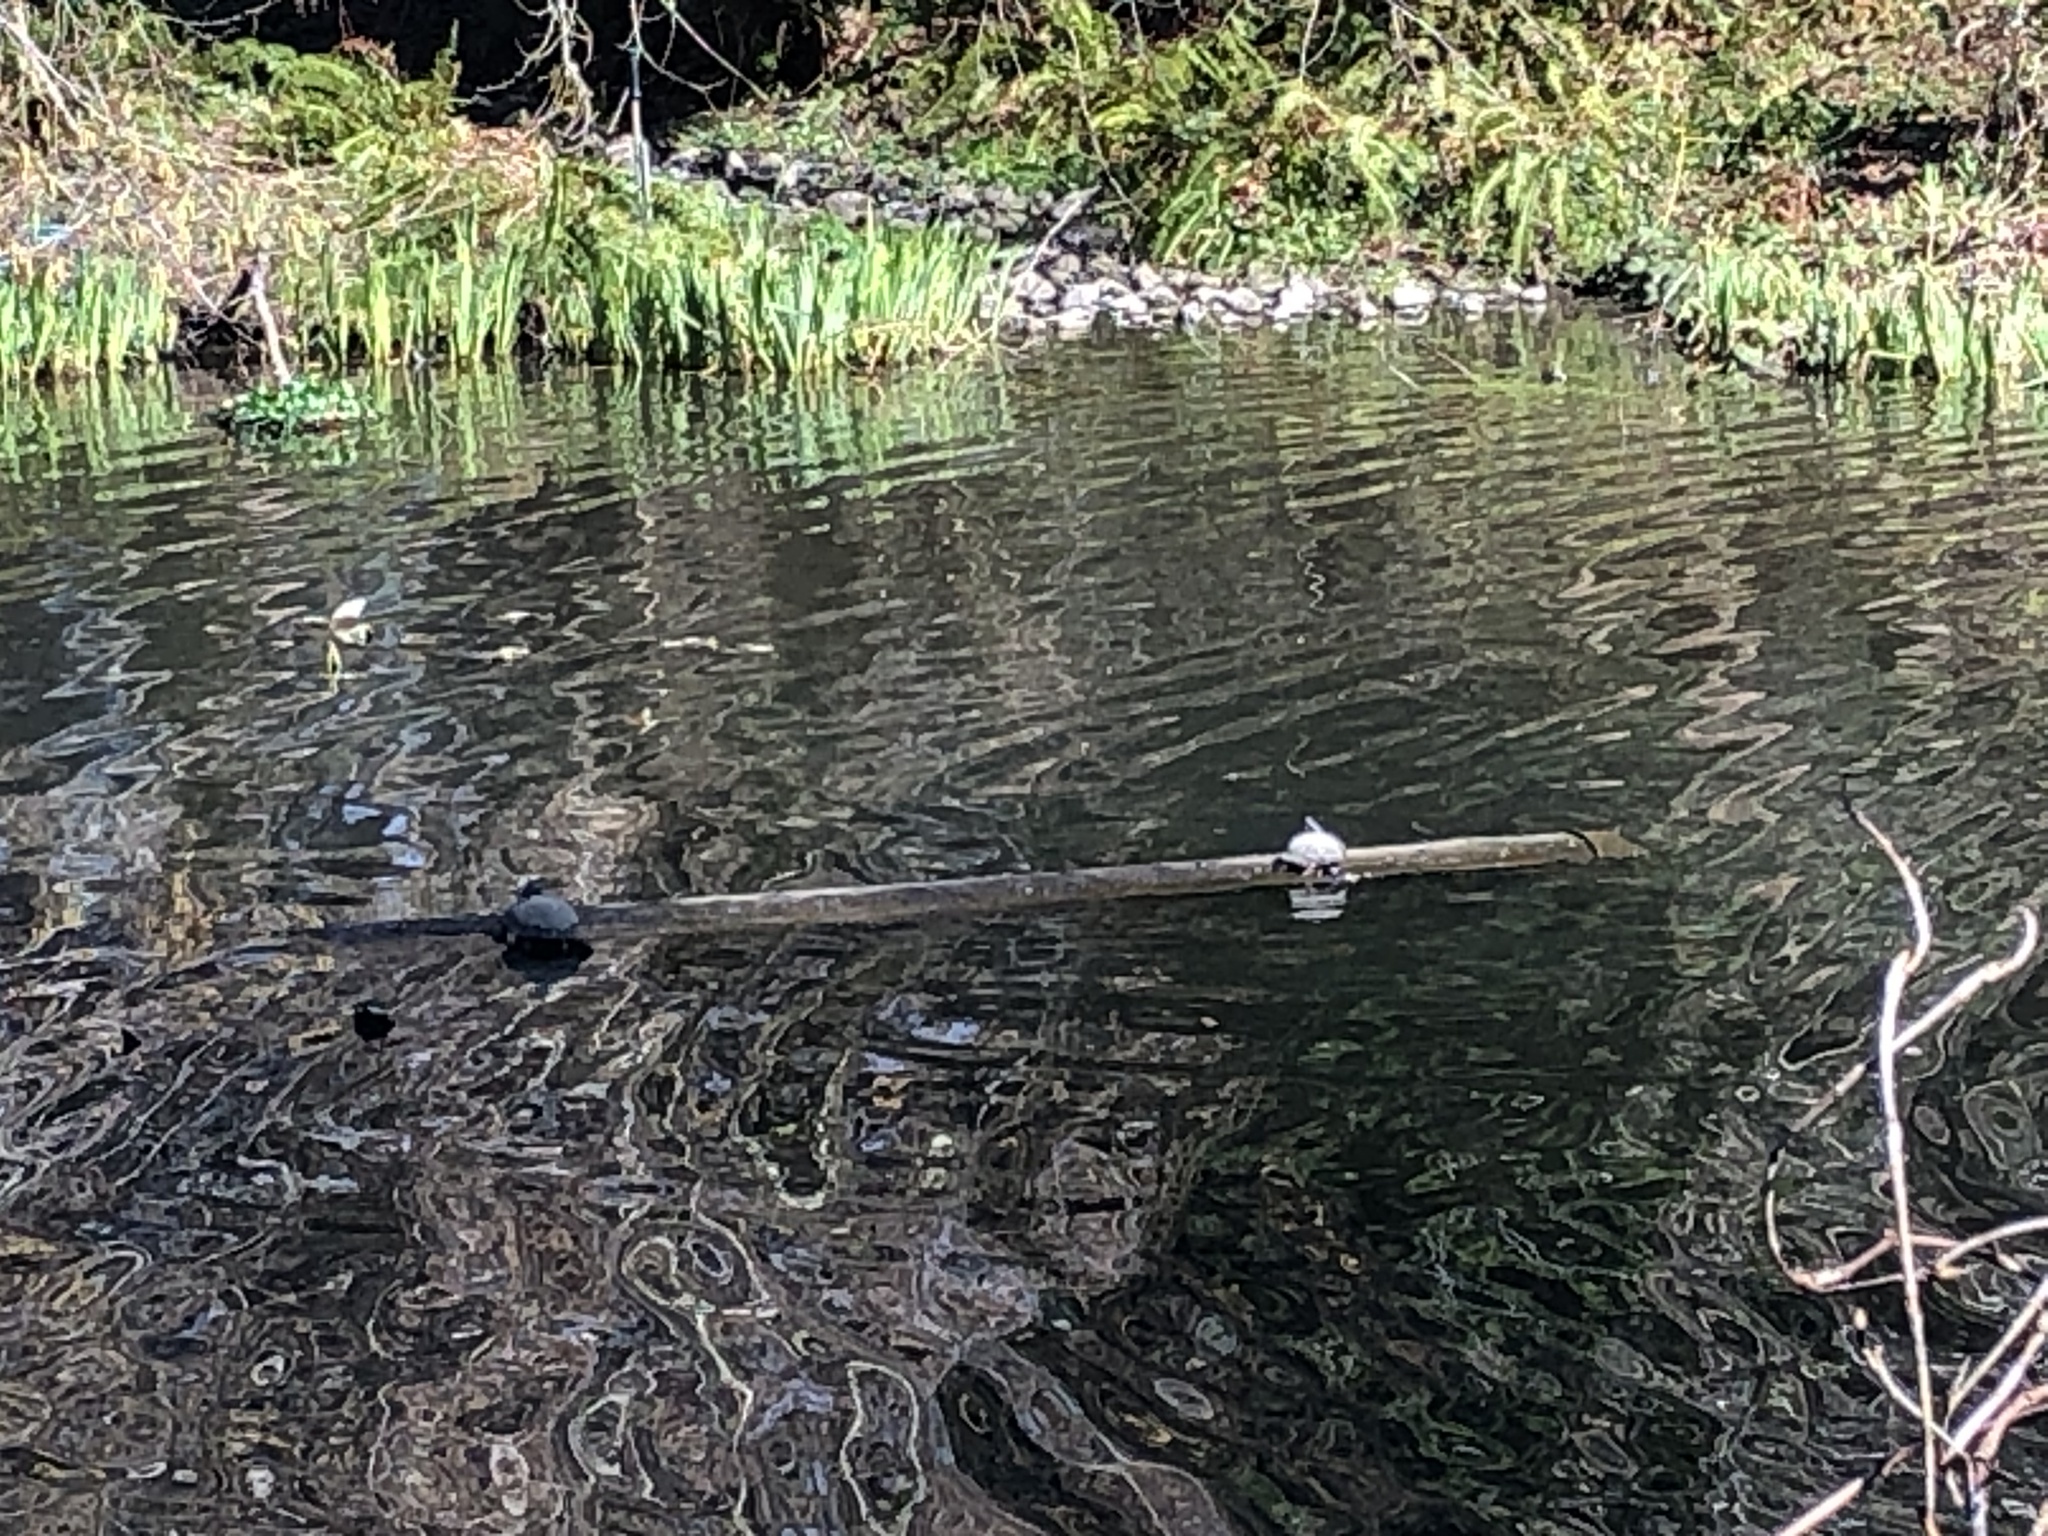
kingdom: Animalia
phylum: Chordata
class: Testudines
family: Emydidae
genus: Trachemys
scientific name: Trachemys scripta
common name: Slider
